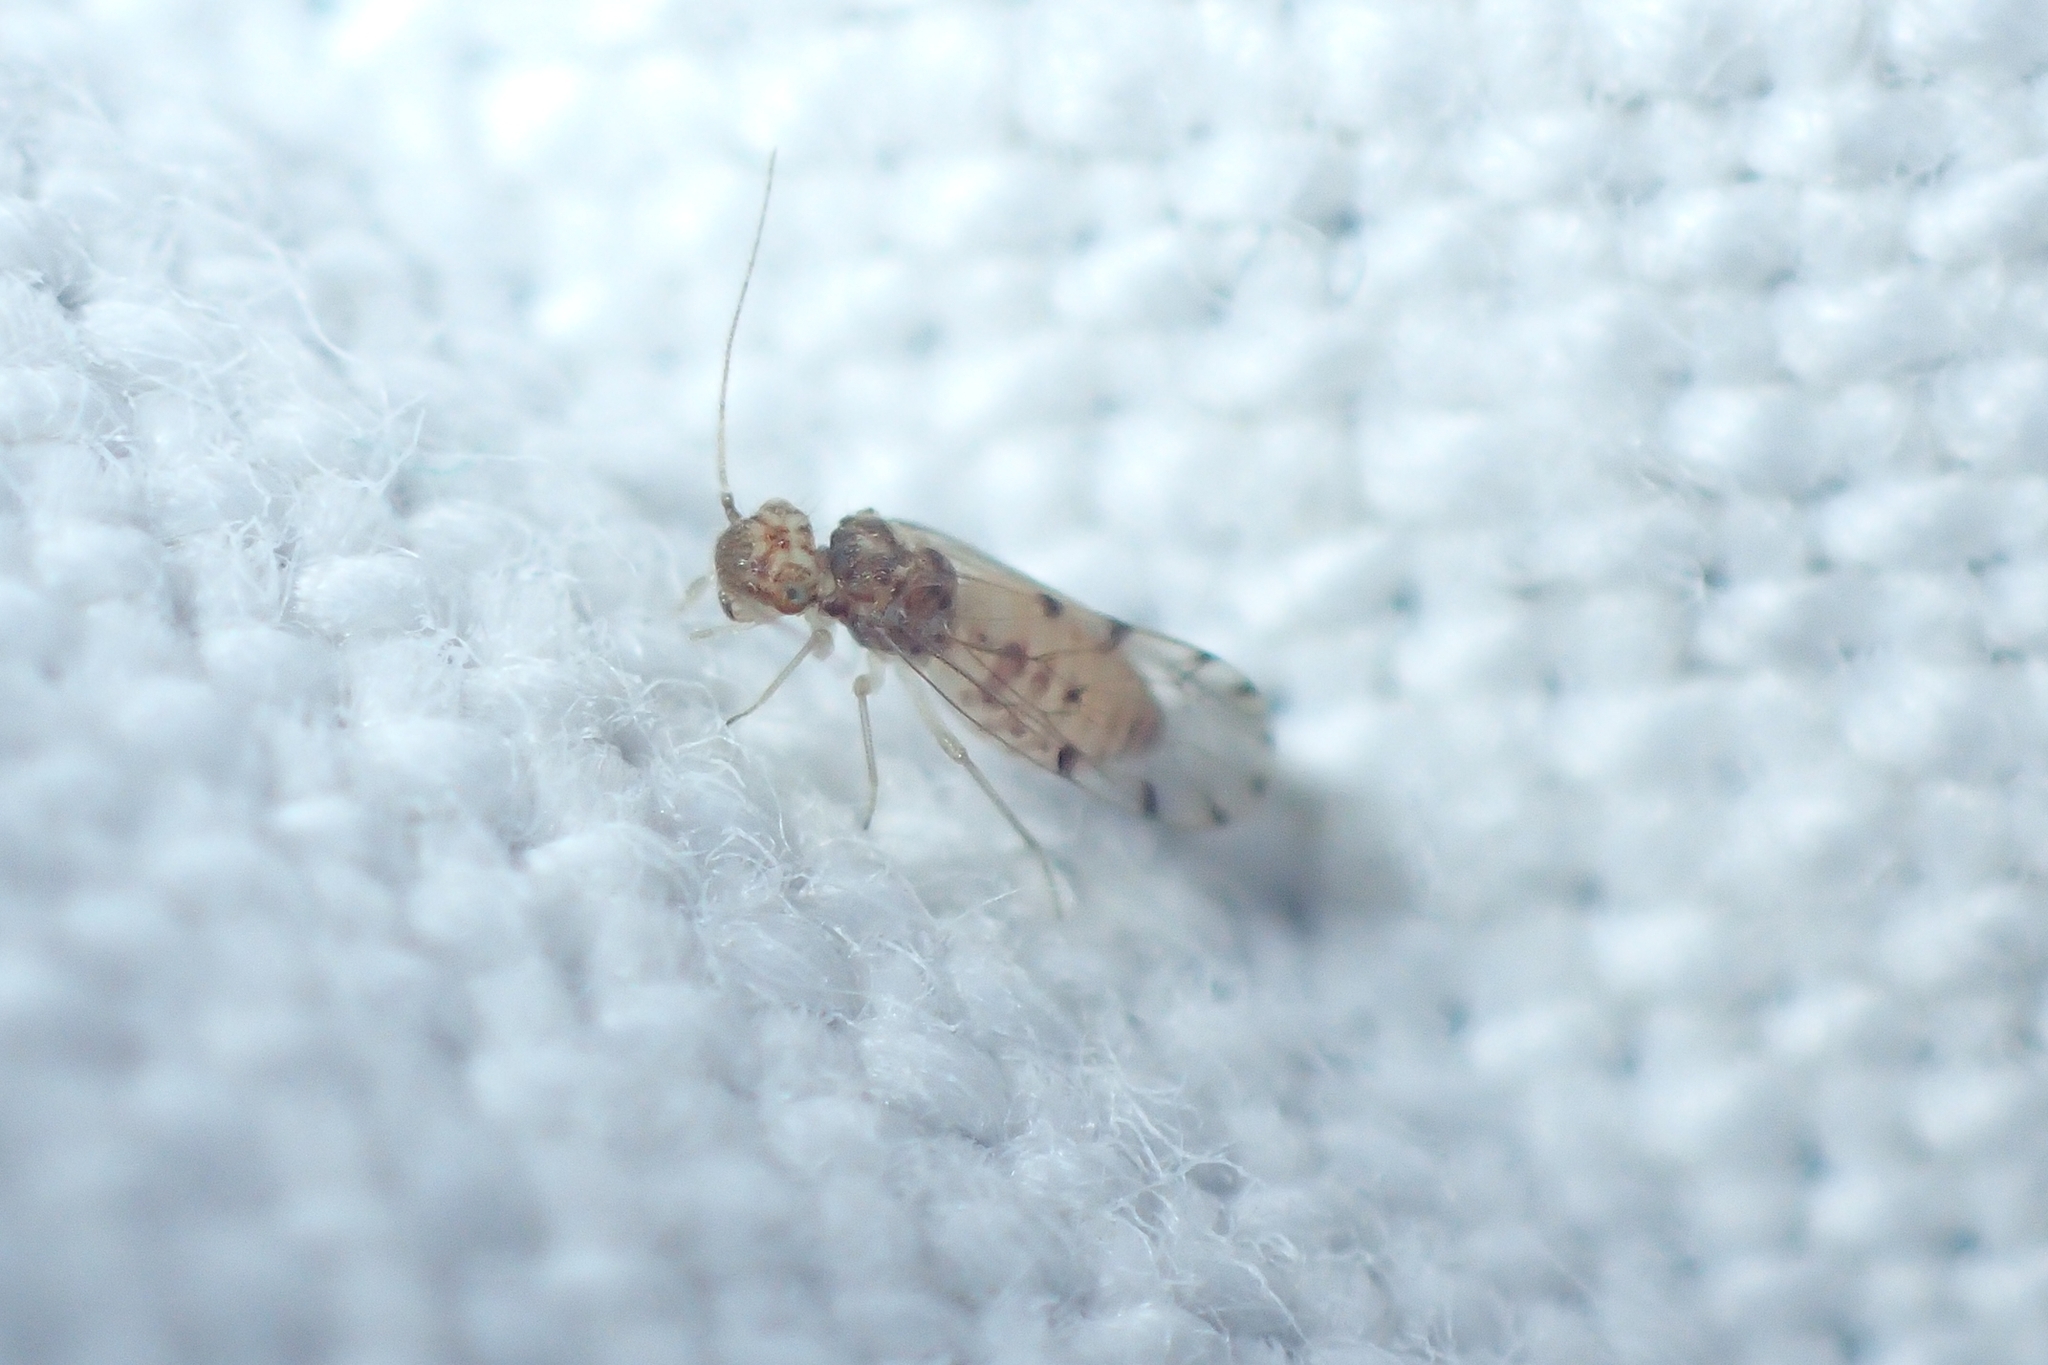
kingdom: Animalia
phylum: Arthropoda
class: Insecta
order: Psocodea
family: Ectopsocidae
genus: Ectopsocus
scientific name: Ectopsocus petersi
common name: Medium-sized bark louse
